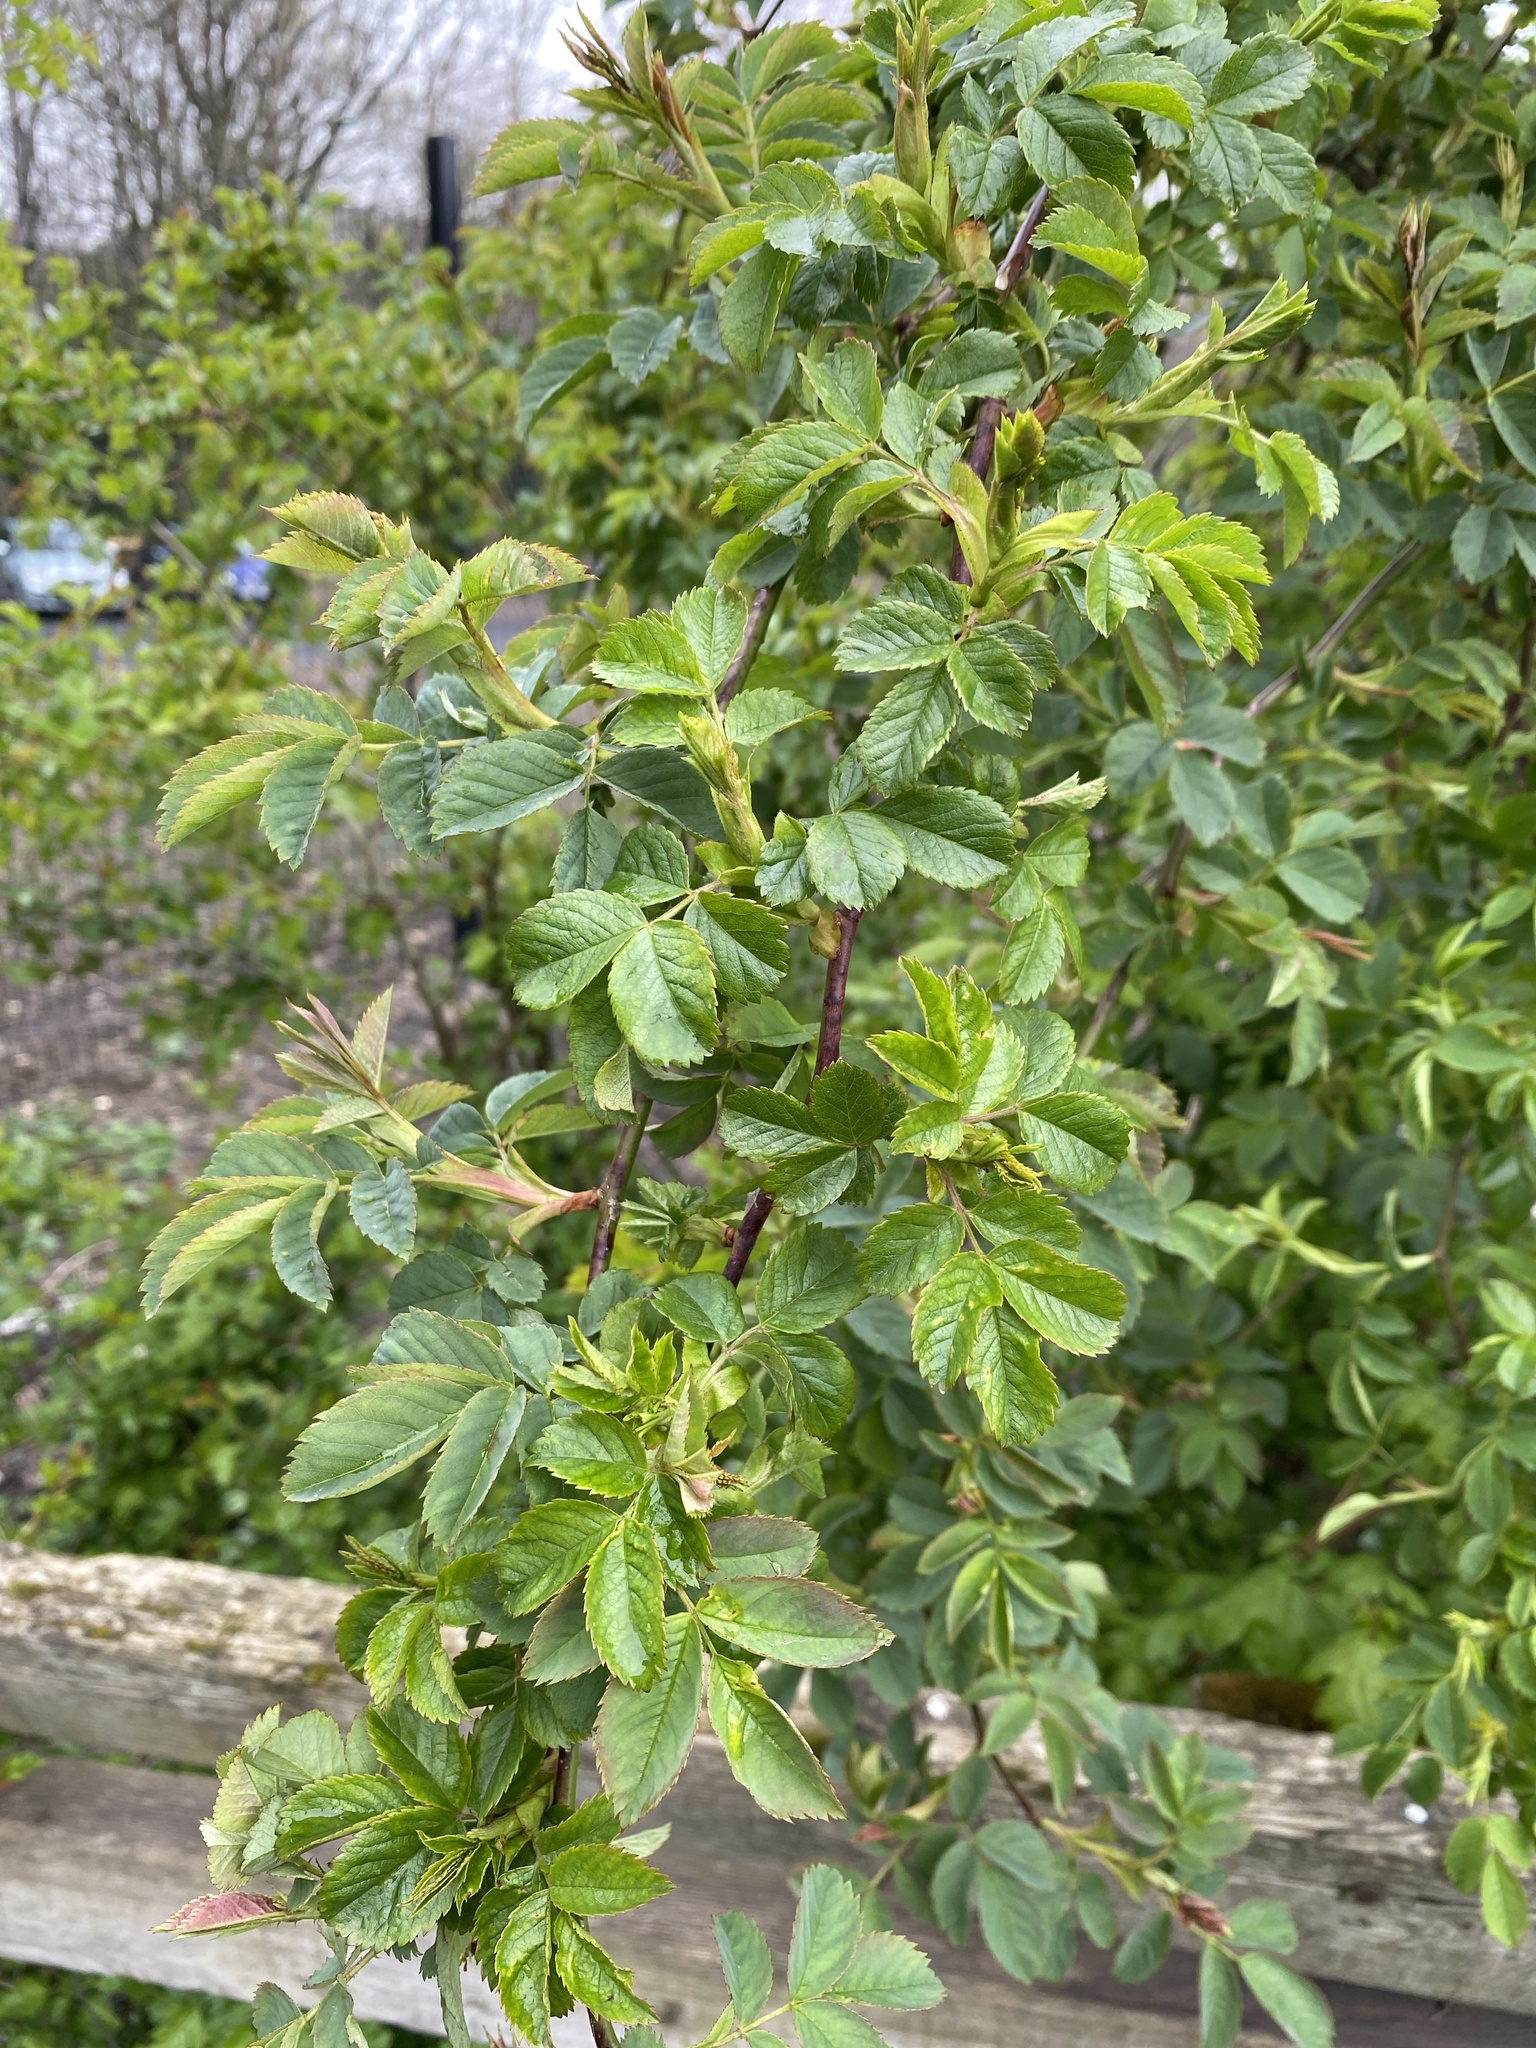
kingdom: Plantae
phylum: Tracheophyta
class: Magnoliopsida
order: Rosales
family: Rosaceae
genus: Rosa
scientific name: Rosa canina
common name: Dog rose
